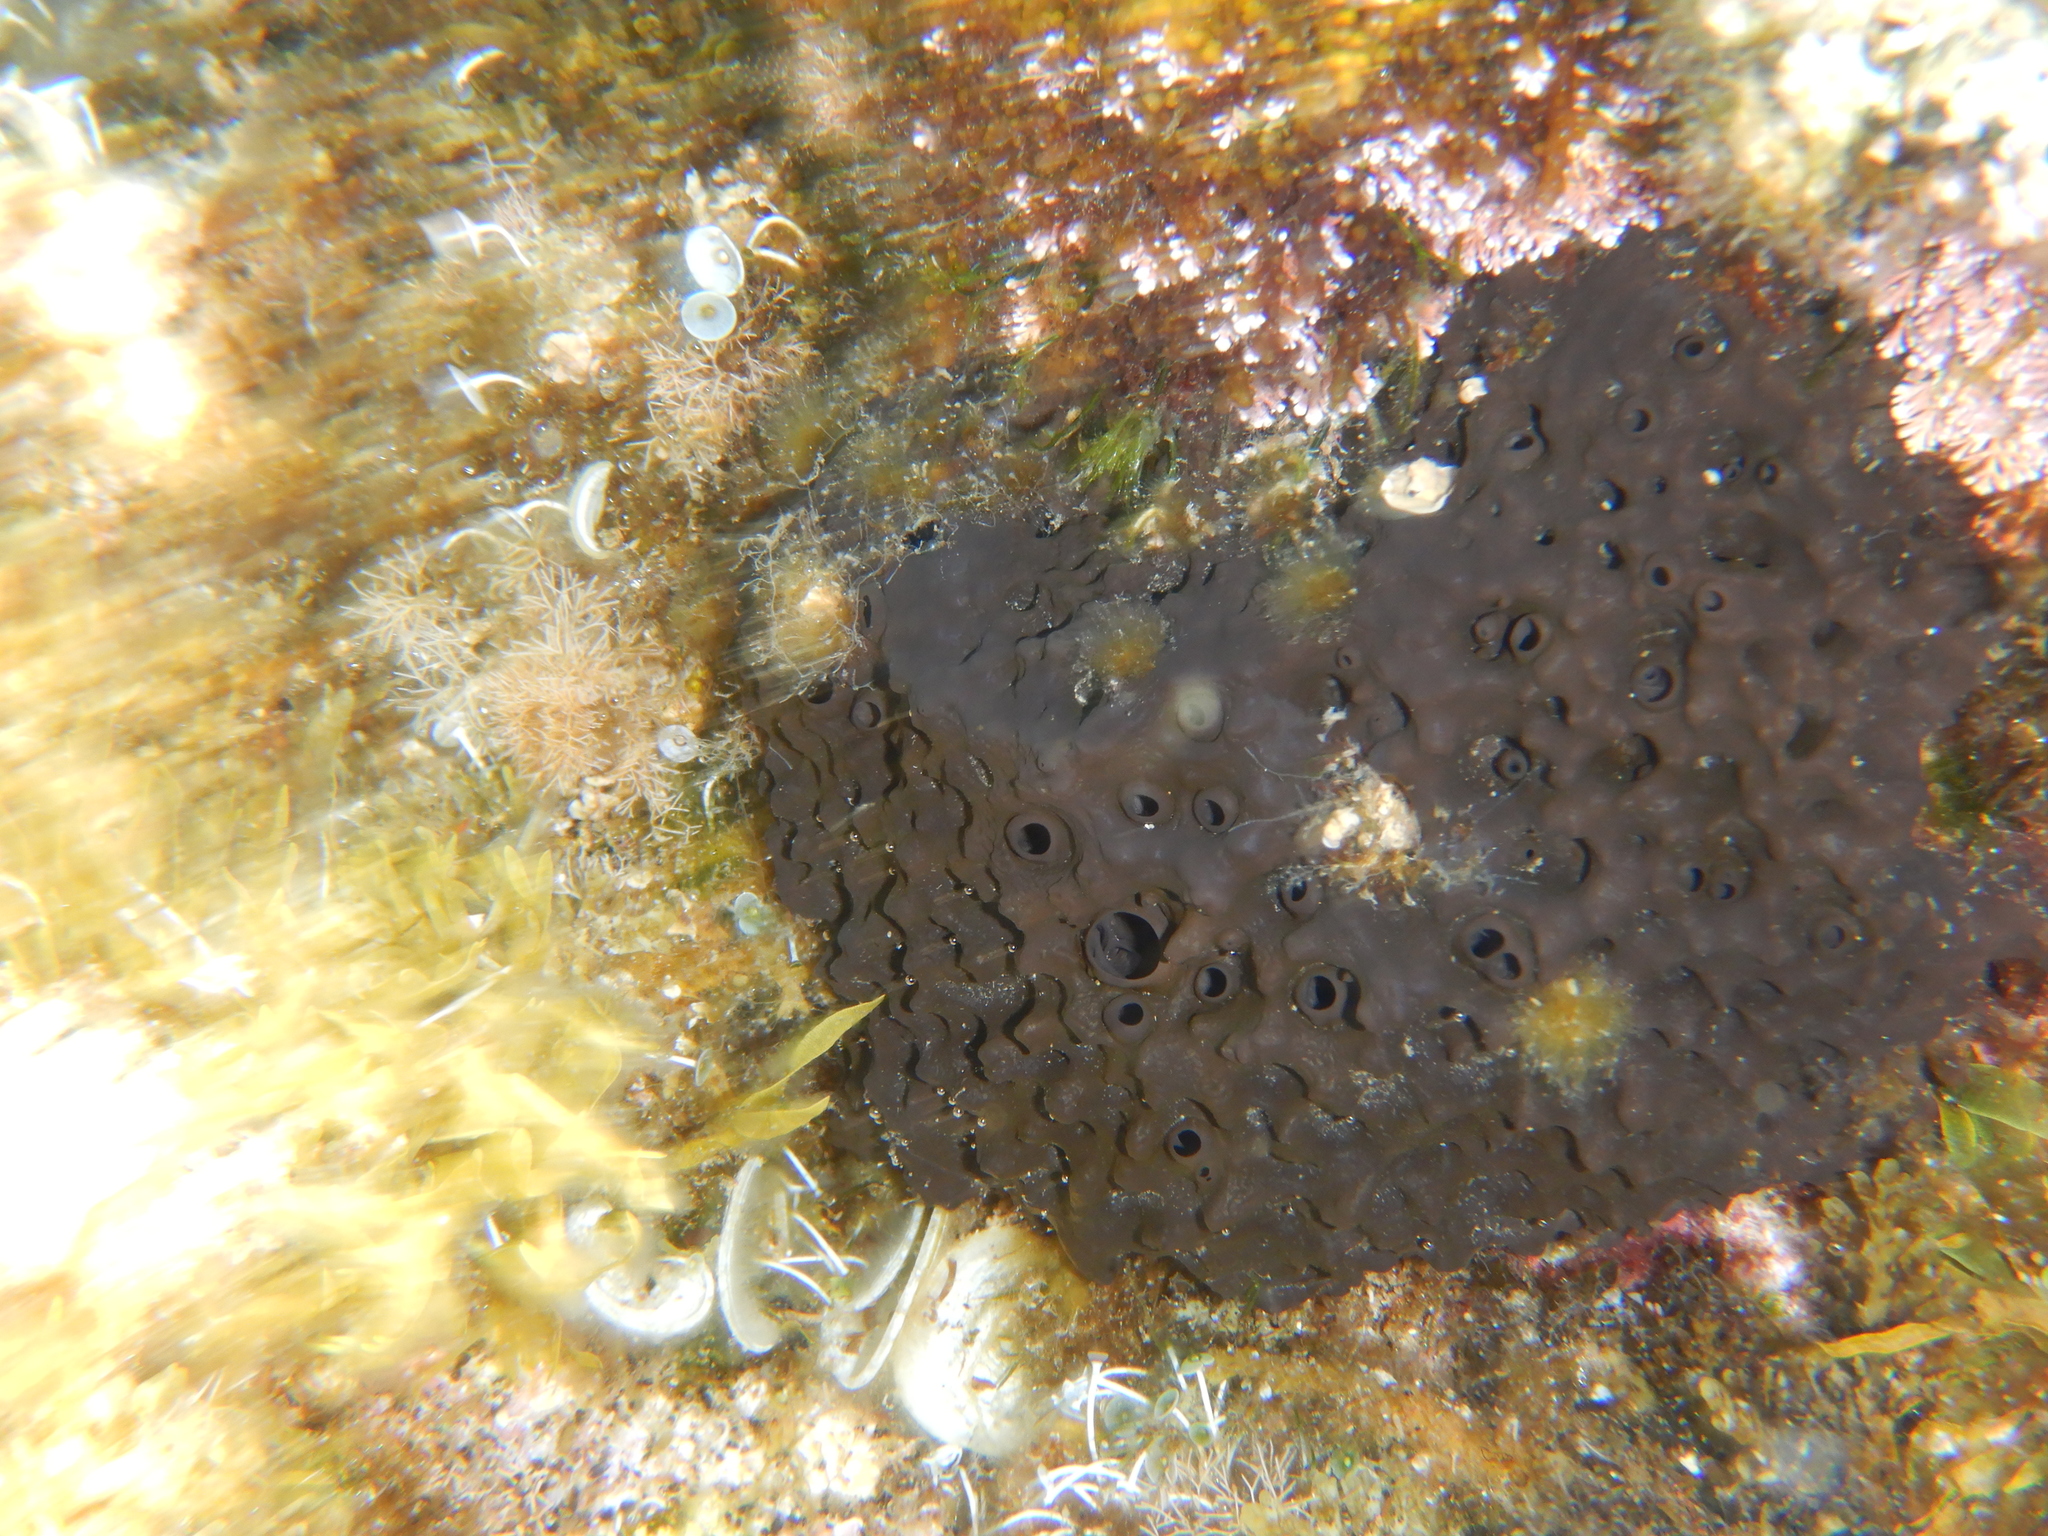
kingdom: Animalia
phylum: Porifera
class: Demospongiae
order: Dictyoceratida
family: Irciniidae
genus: Sarcotragus
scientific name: Sarcotragus spinosulus
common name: Black leather sponge
